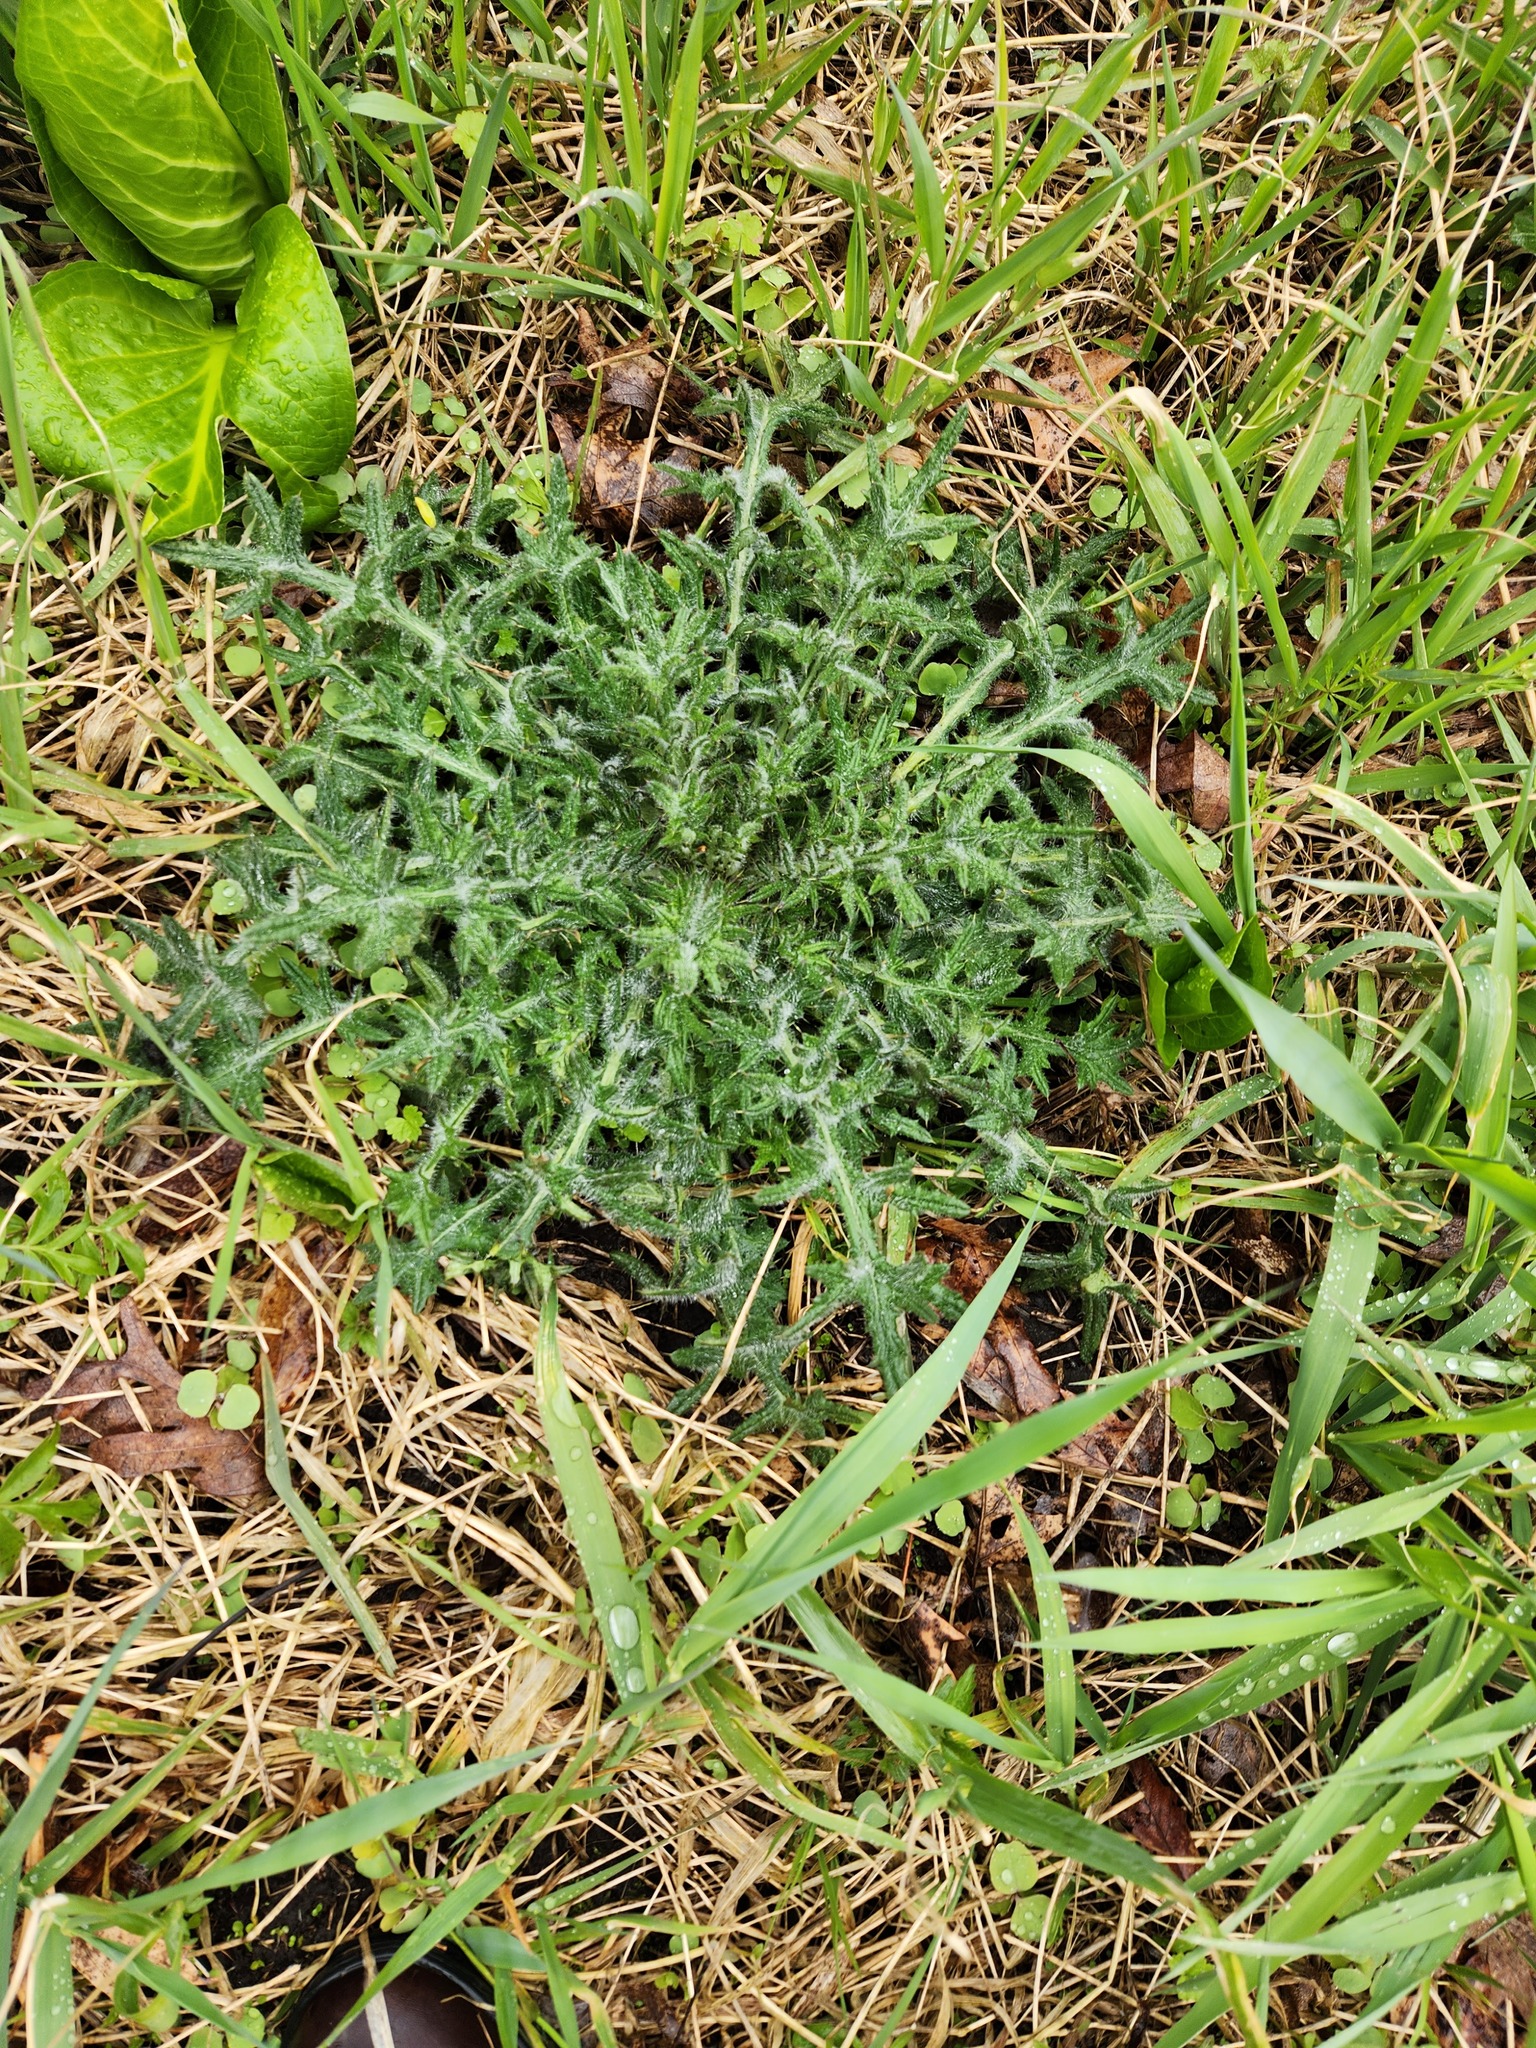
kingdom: Plantae
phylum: Tracheophyta
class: Magnoliopsida
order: Asterales
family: Asteraceae
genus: Cirsium
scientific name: Cirsium vulgare
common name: Bull thistle
